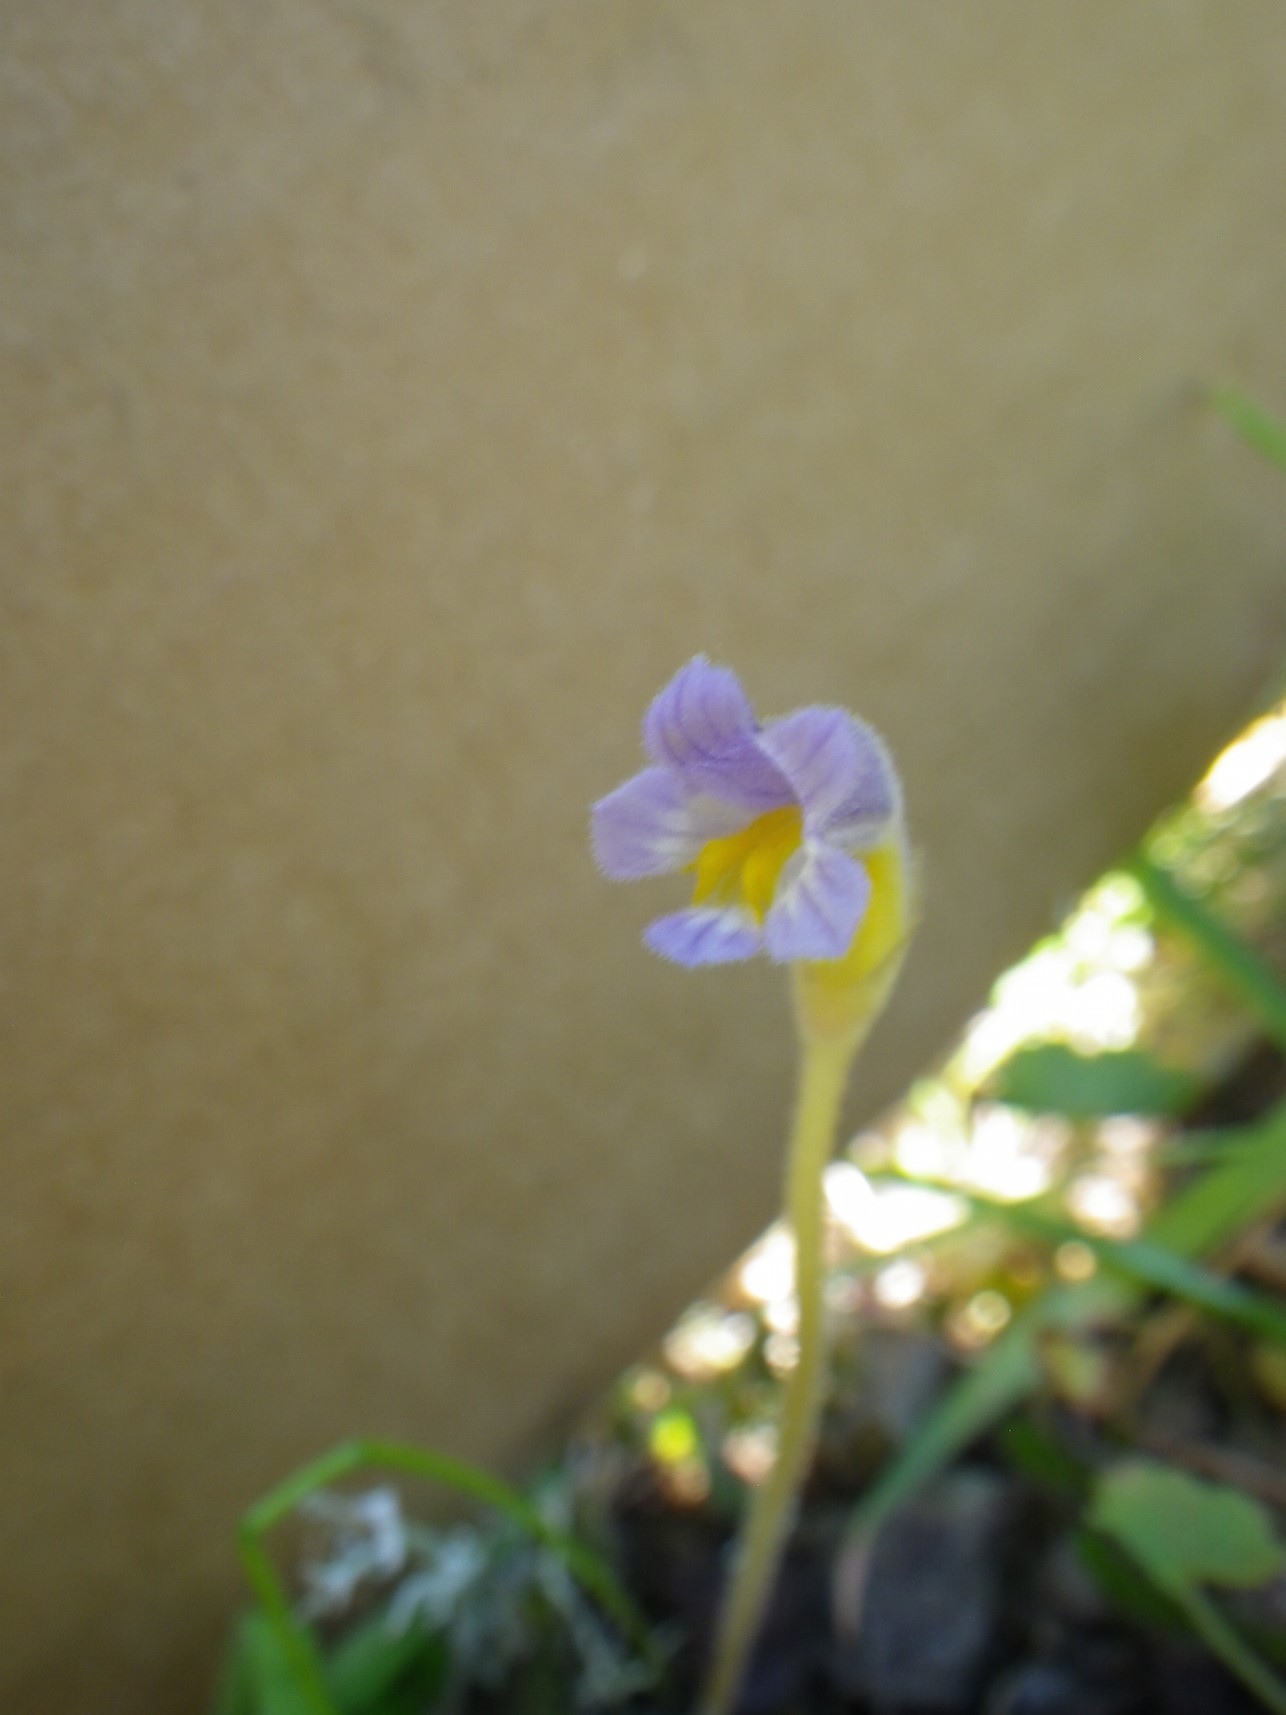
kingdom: Plantae
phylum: Tracheophyta
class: Magnoliopsida
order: Lamiales
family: Orobanchaceae
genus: Aphyllon
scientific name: Aphyllon uniflorum
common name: One-flowered broomrape
